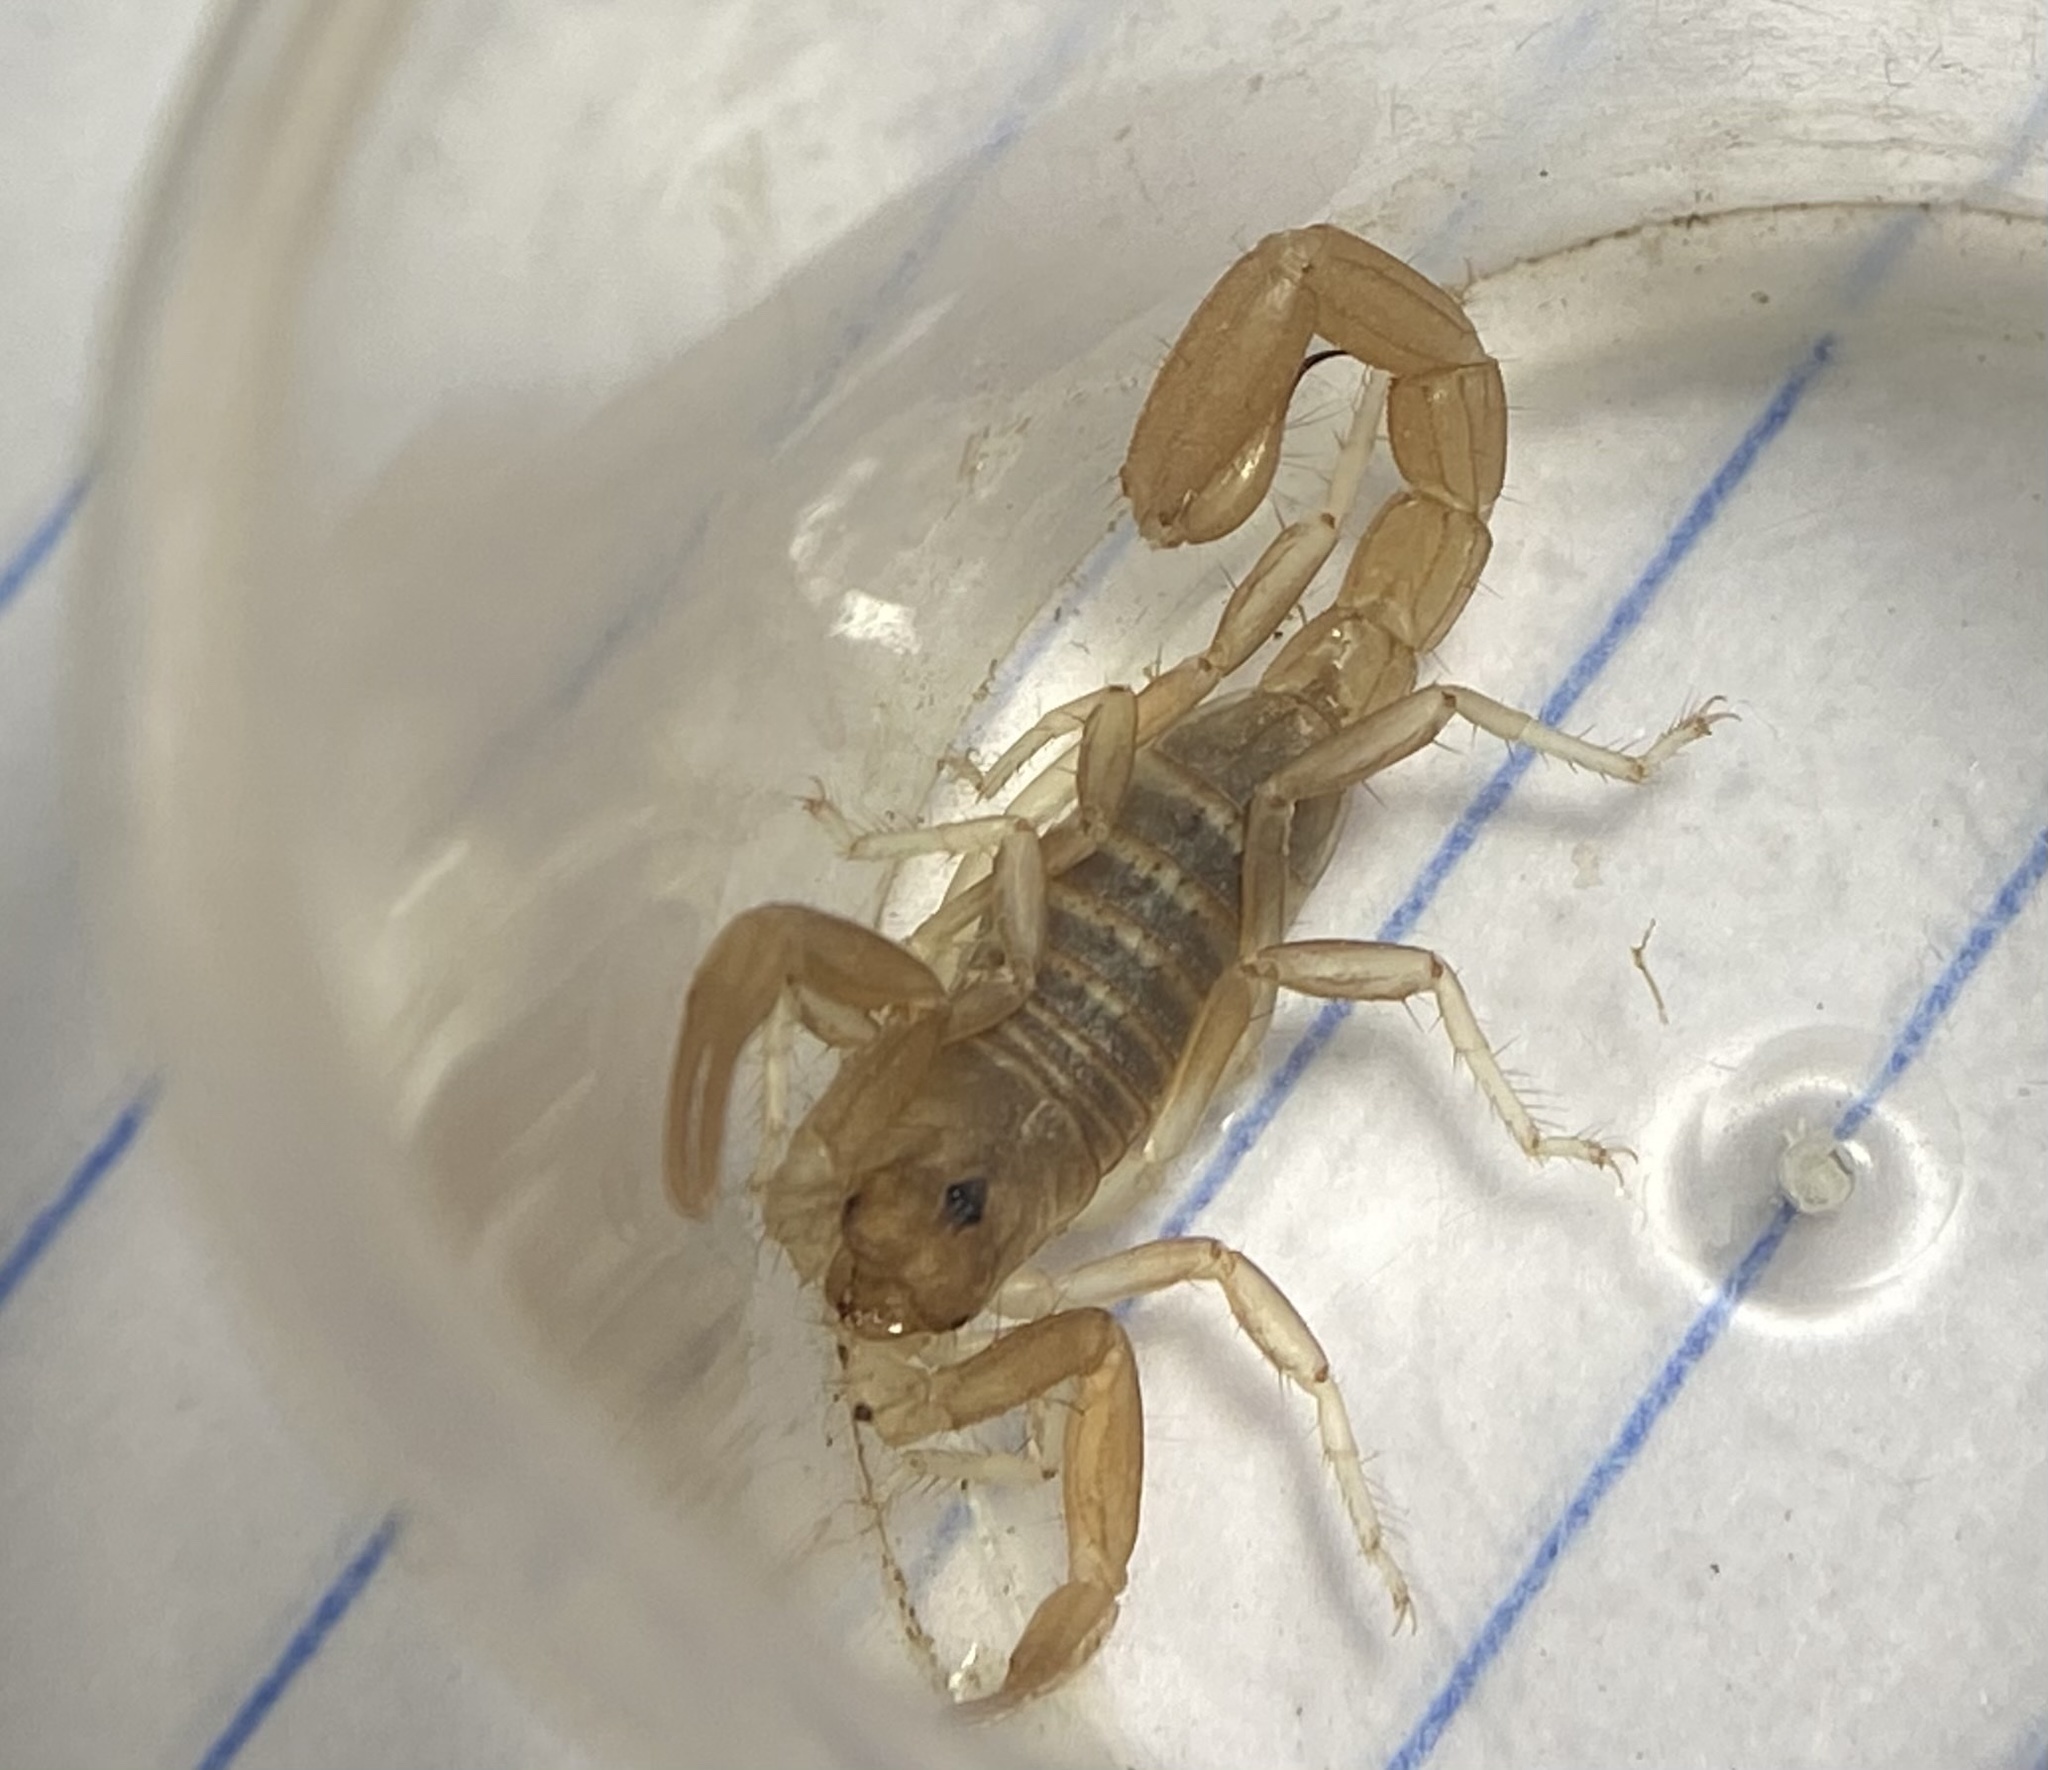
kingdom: Animalia
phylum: Arthropoda
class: Arachnida
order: Scorpiones
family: Vaejovidae
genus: Paravaejovis
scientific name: Paravaejovis confusus
